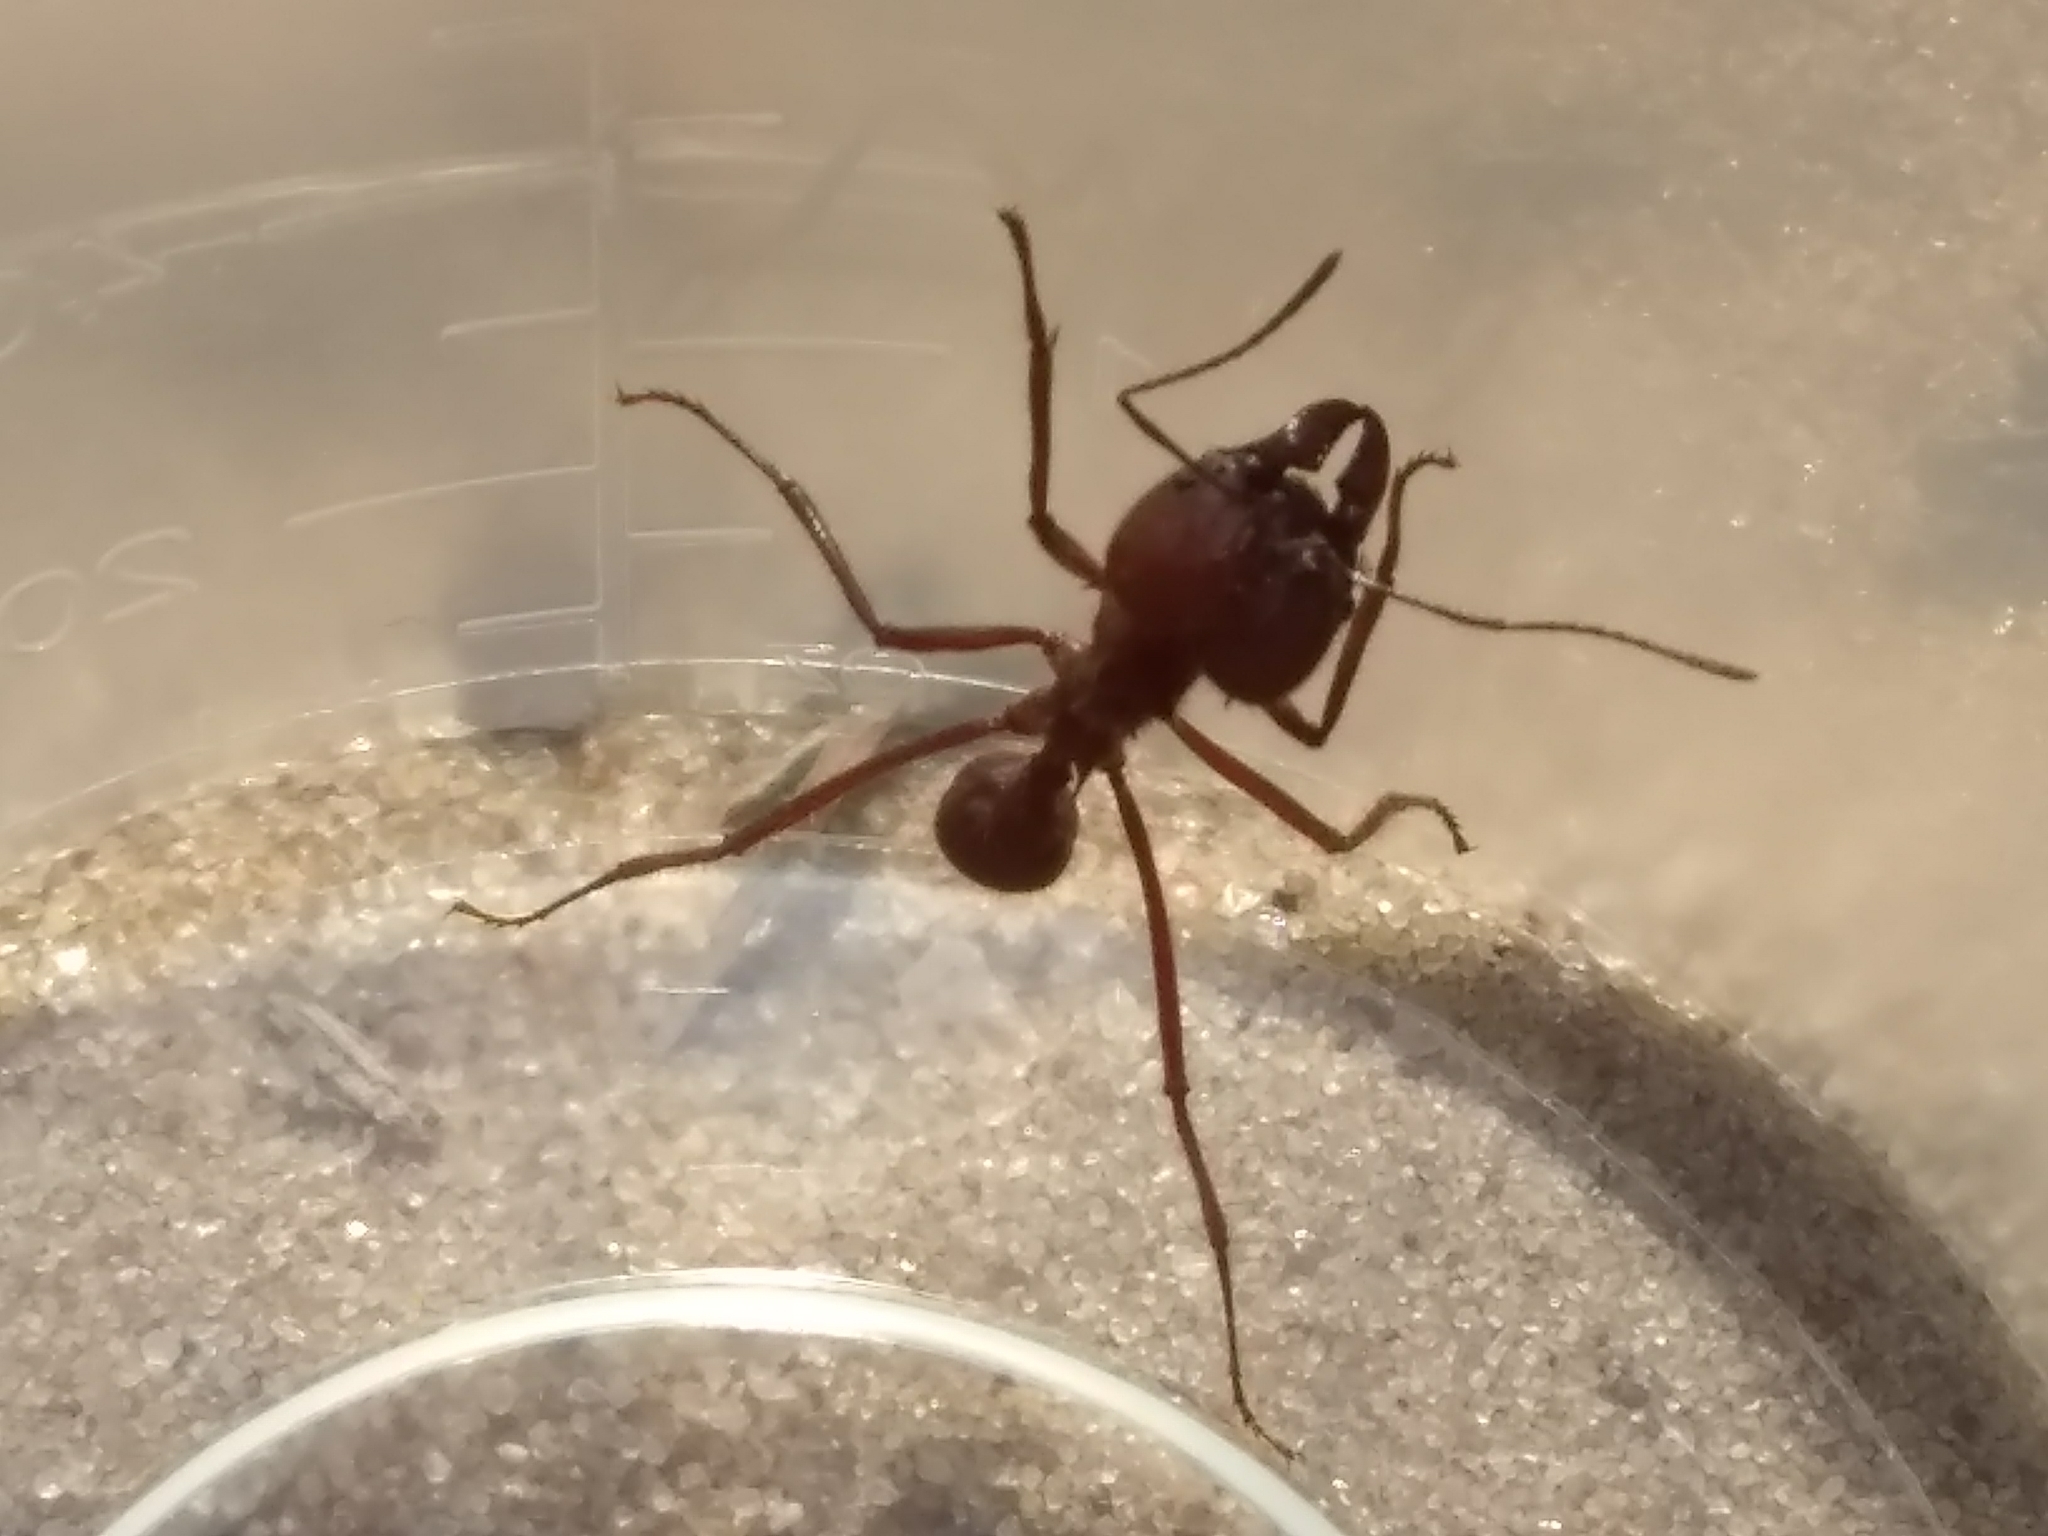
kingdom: Animalia
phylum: Arthropoda
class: Insecta
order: Hymenoptera
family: Formicidae
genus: Atta
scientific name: Atta texana
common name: Texas leafcutting ant
